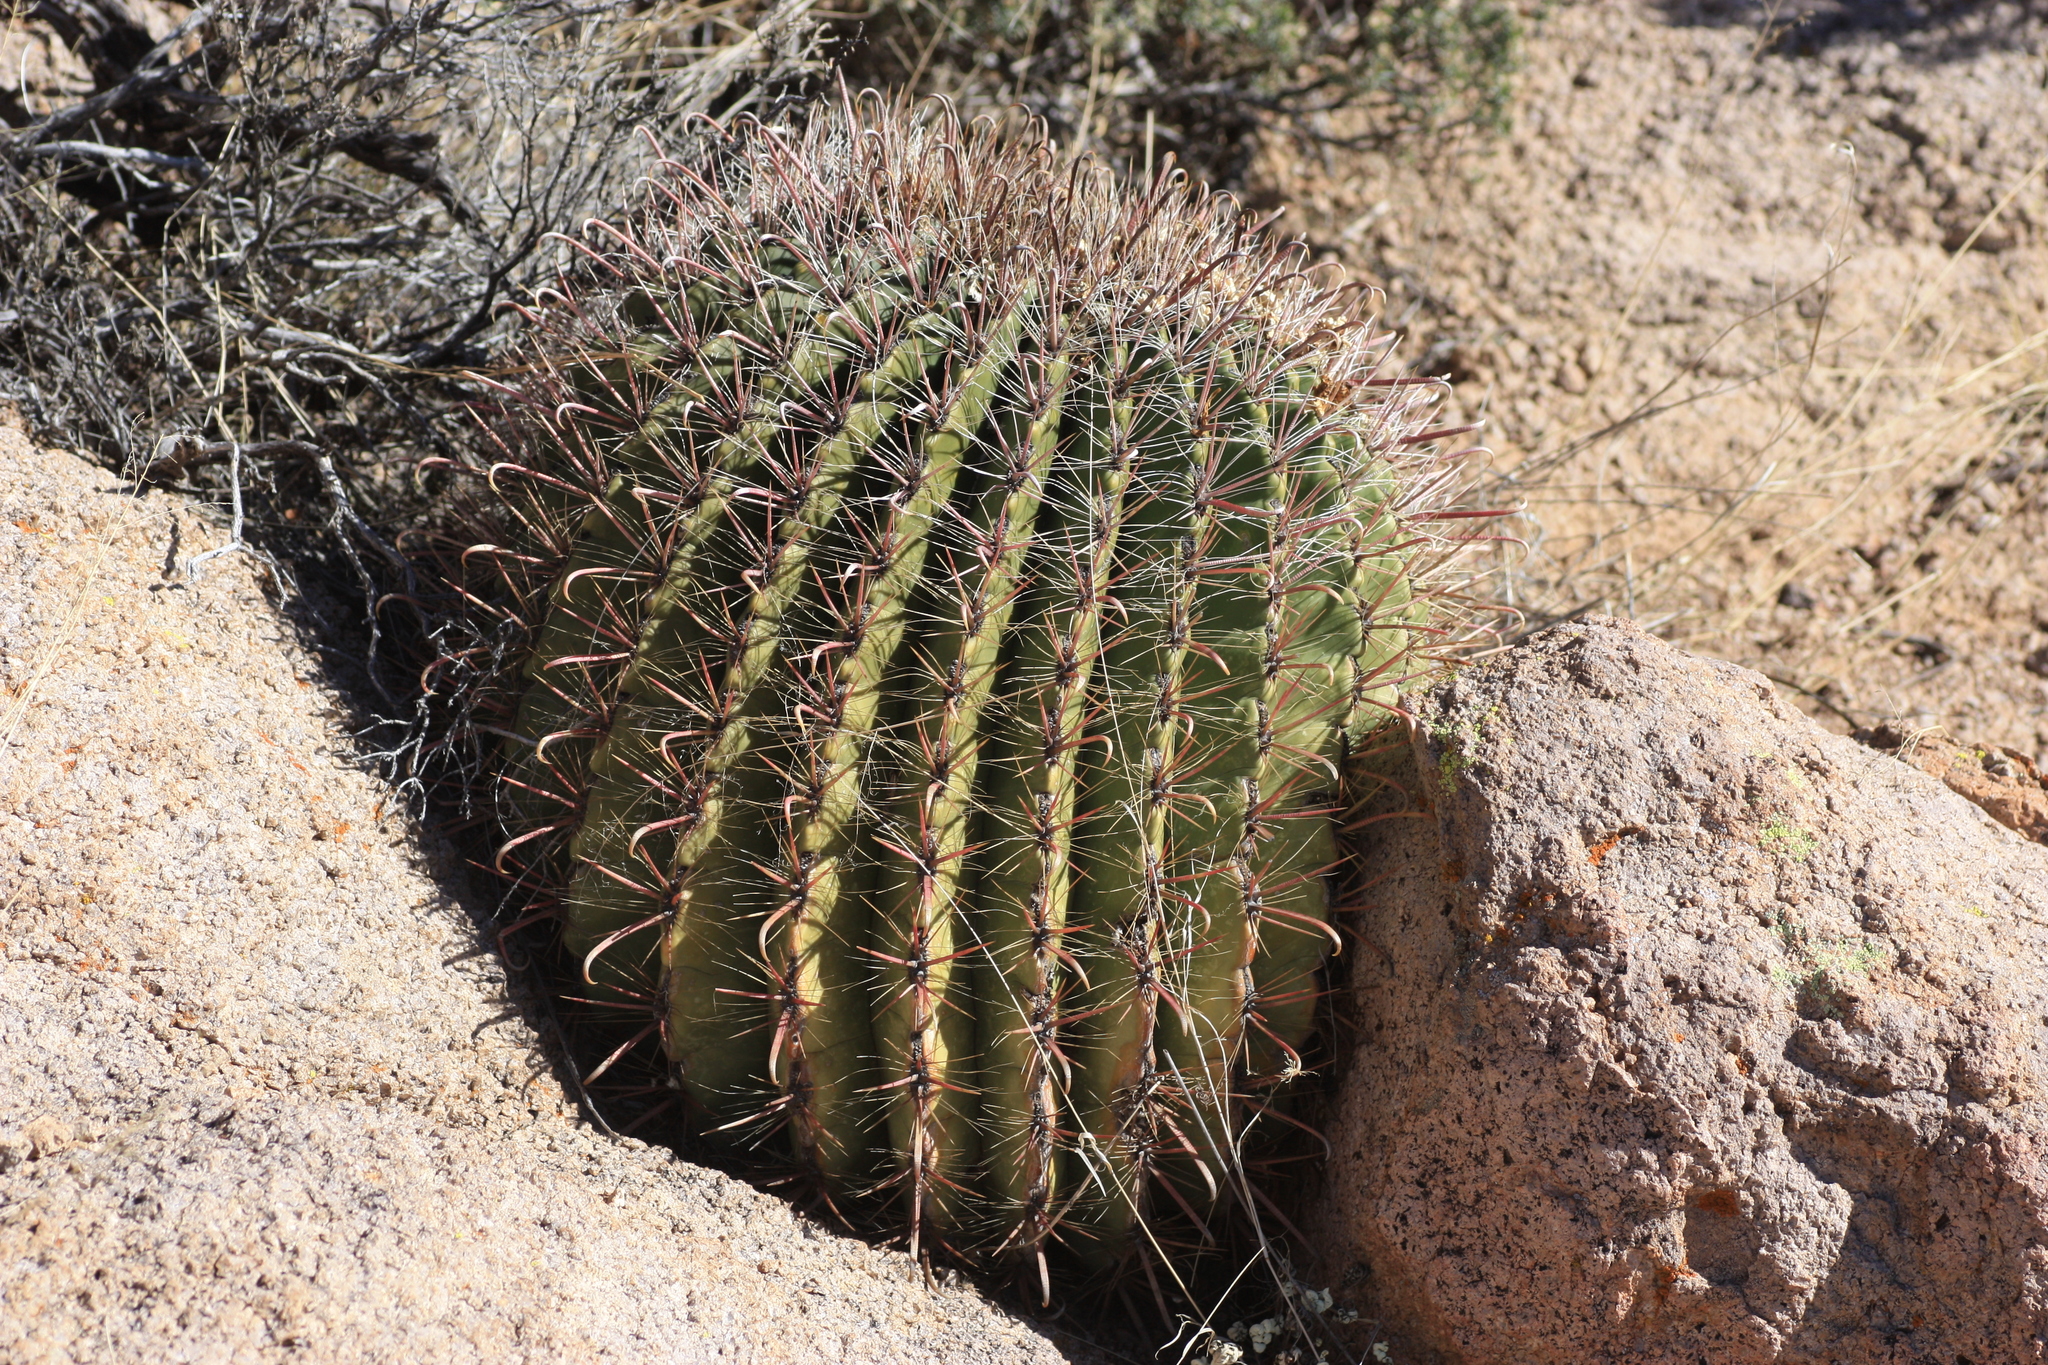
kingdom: Plantae
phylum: Tracheophyta
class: Magnoliopsida
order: Caryophyllales
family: Cactaceae
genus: Ferocactus
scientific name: Ferocactus wislizeni
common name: Candy barrel cactus
